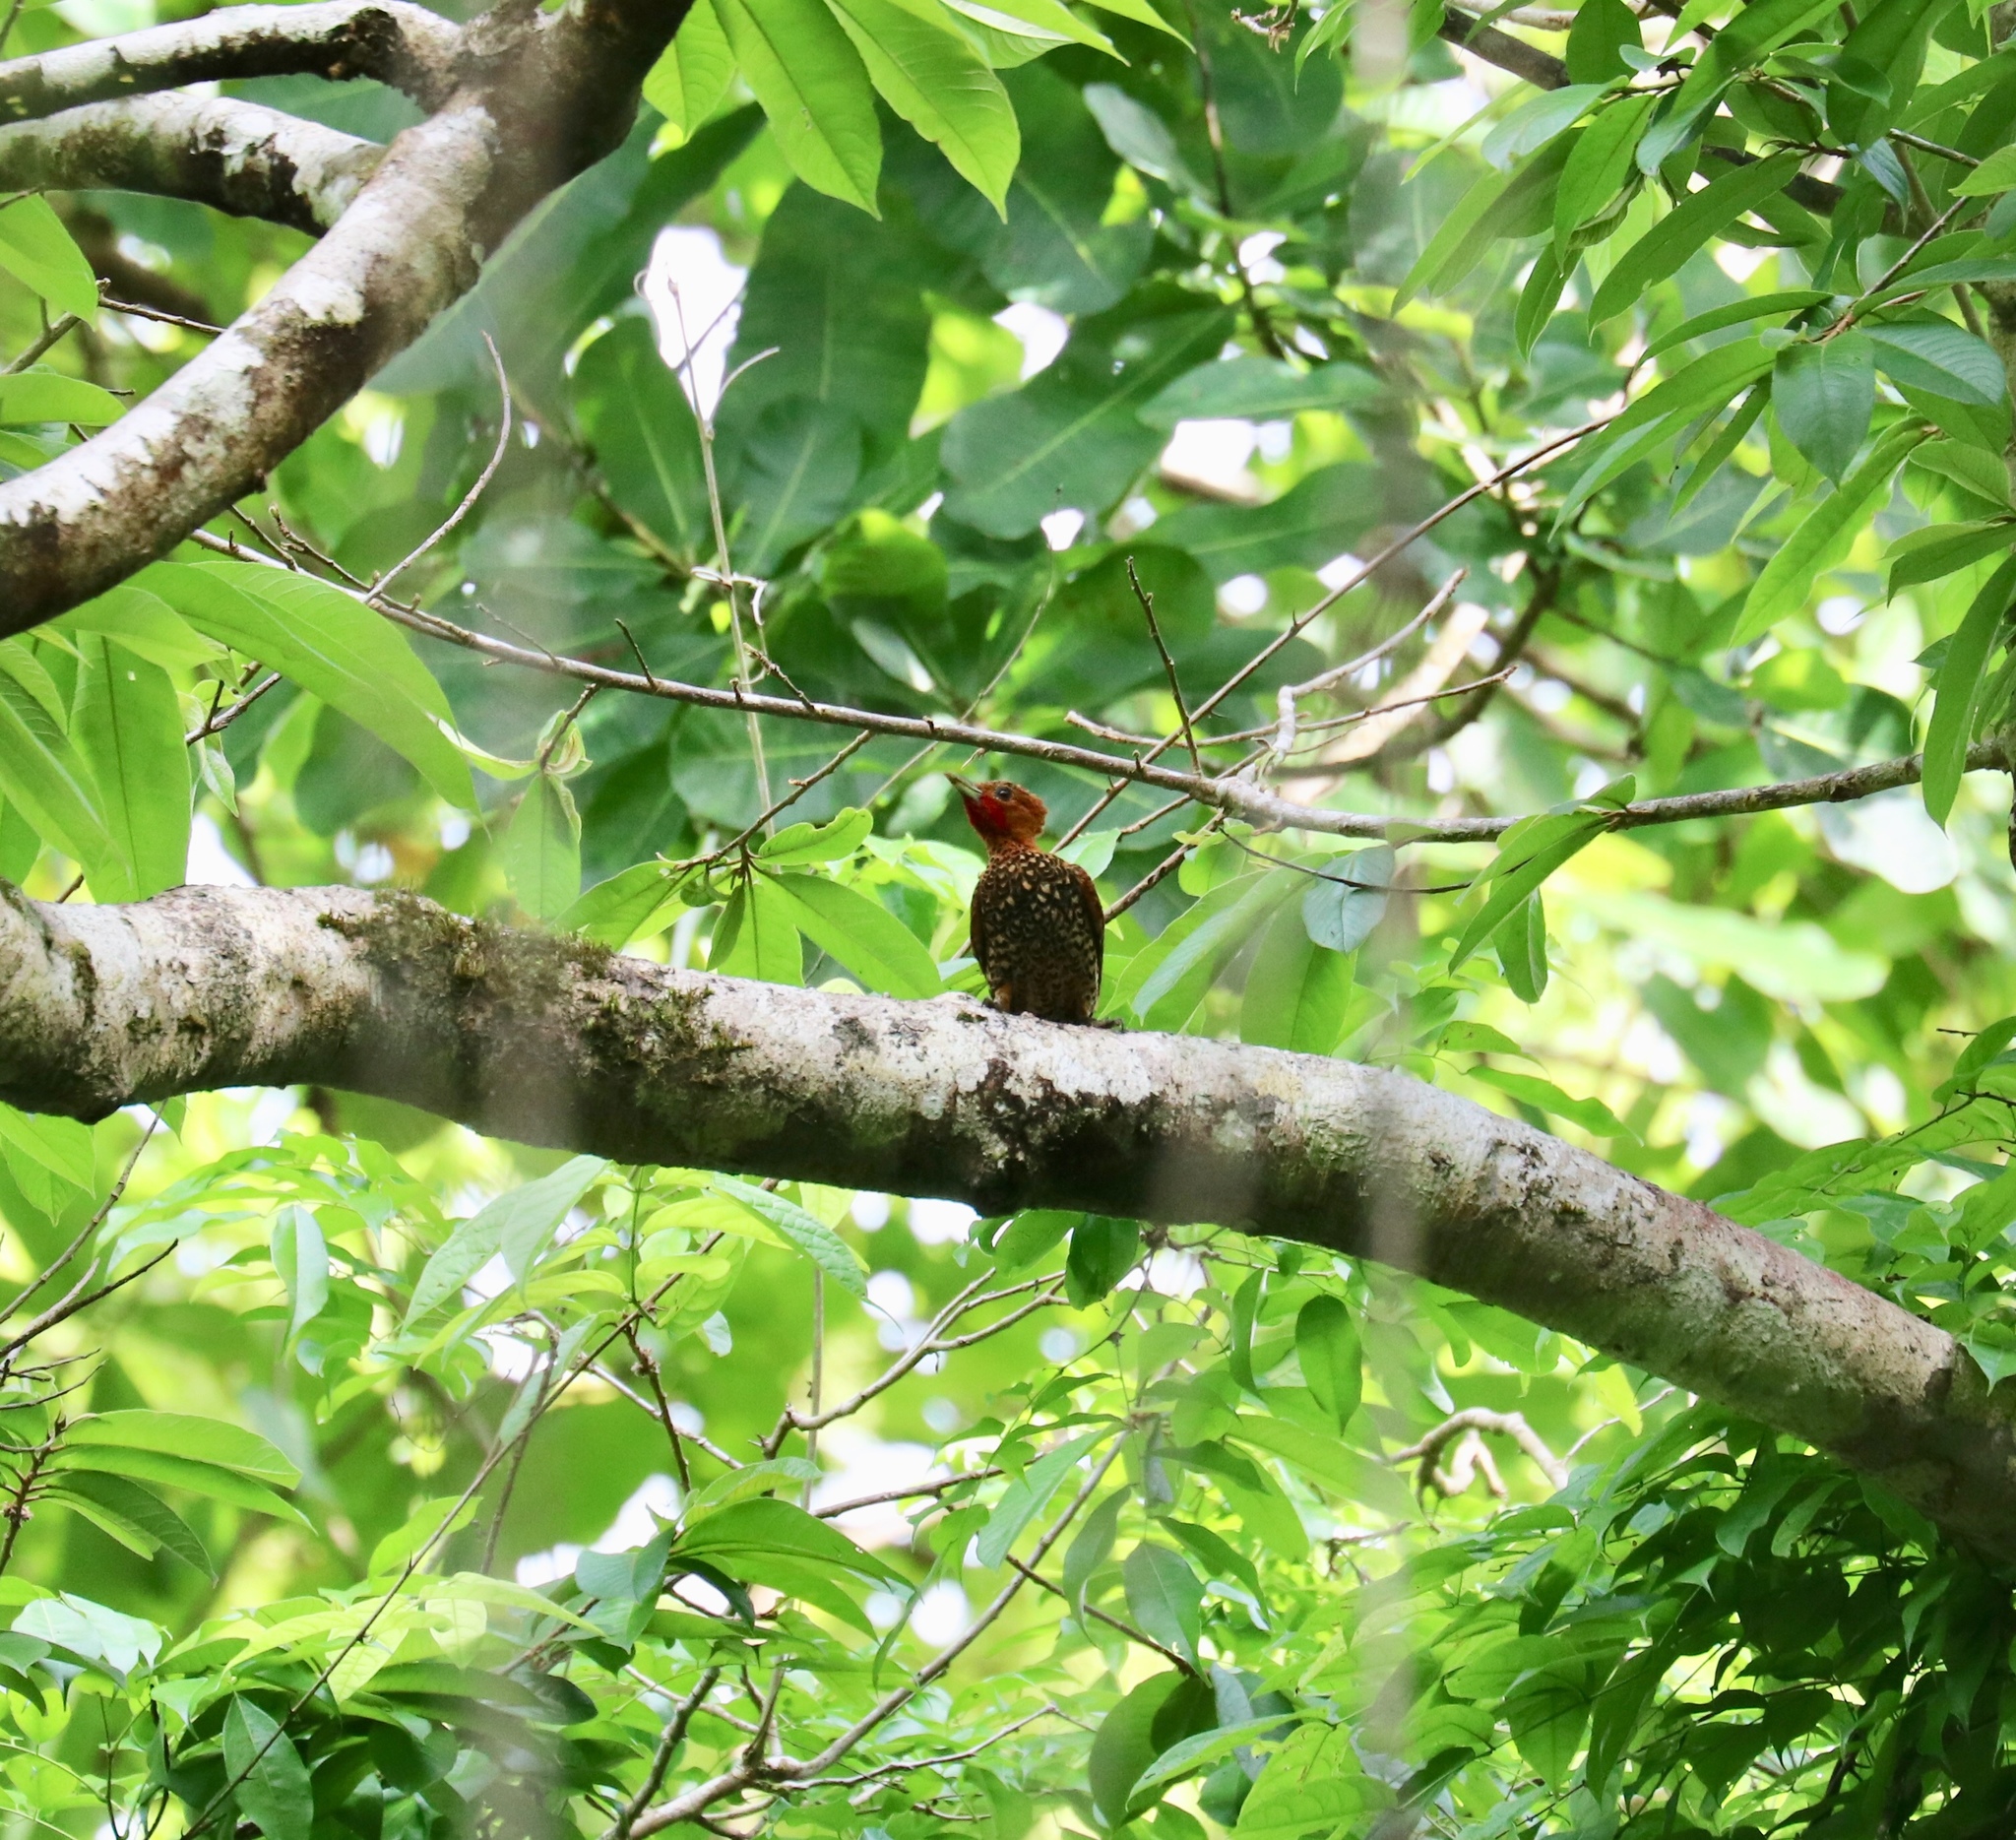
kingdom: Animalia
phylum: Chordata
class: Aves
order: Piciformes
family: Picidae
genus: Celeus
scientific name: Celeus loricatus
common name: Cinnamon woodpecker
